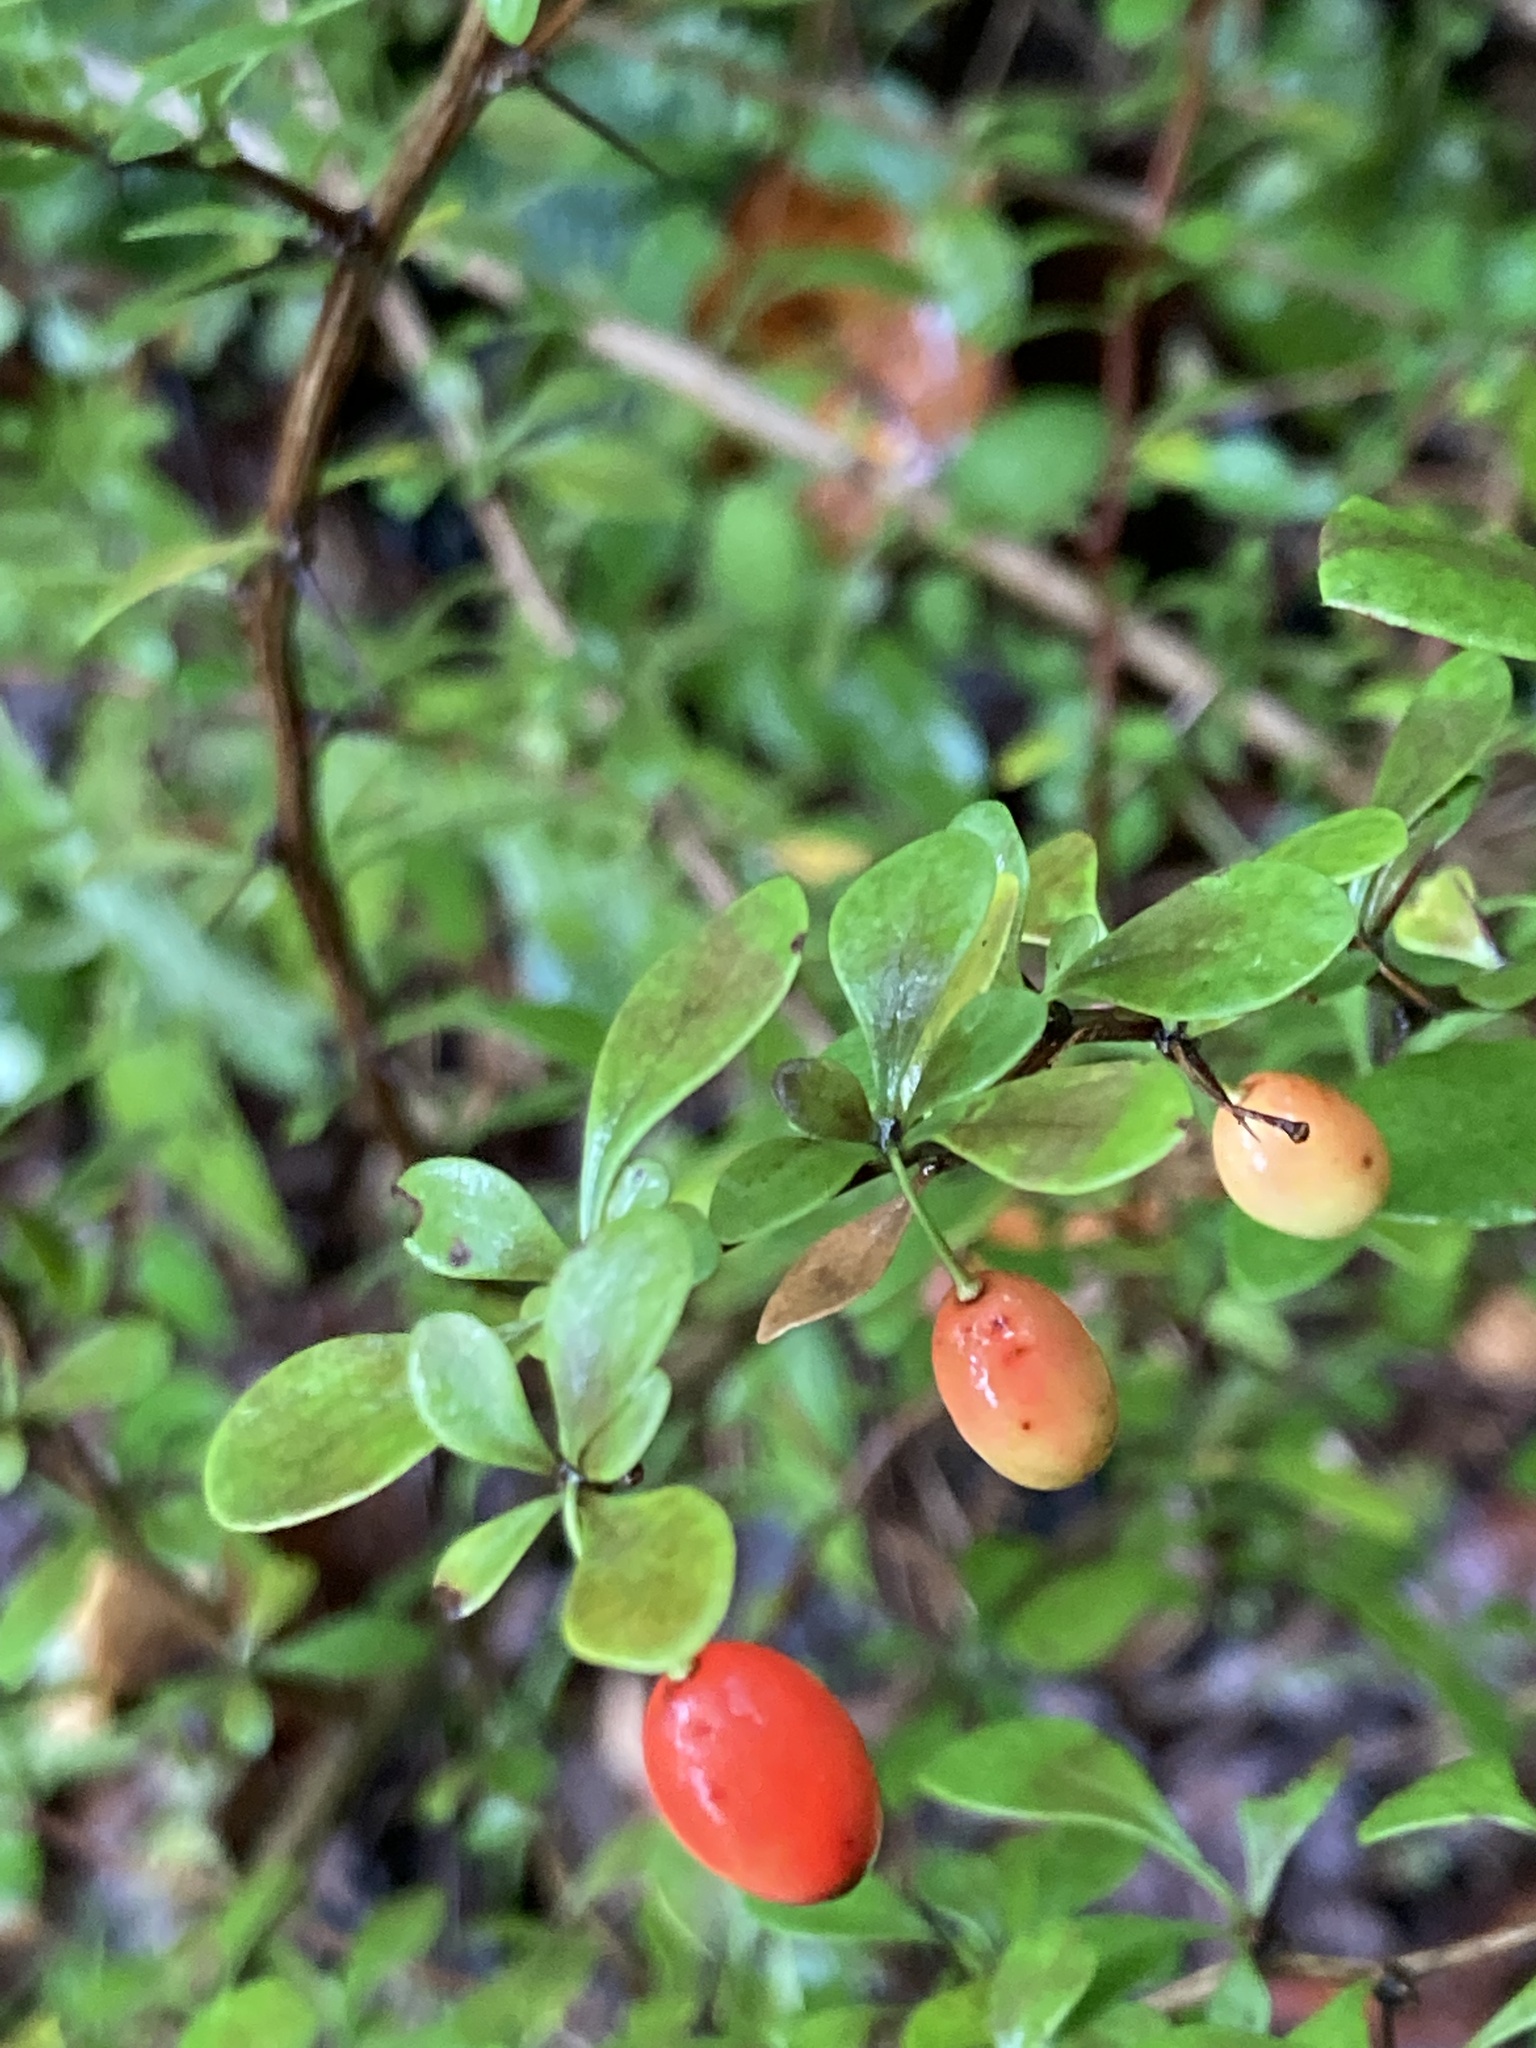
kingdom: Plantae
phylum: Tracheophyta
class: Magnoliopsida
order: Ranunculales
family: Berberidaceae
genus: Berberis
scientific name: Berberis thunbergii
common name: Japanese barberry
